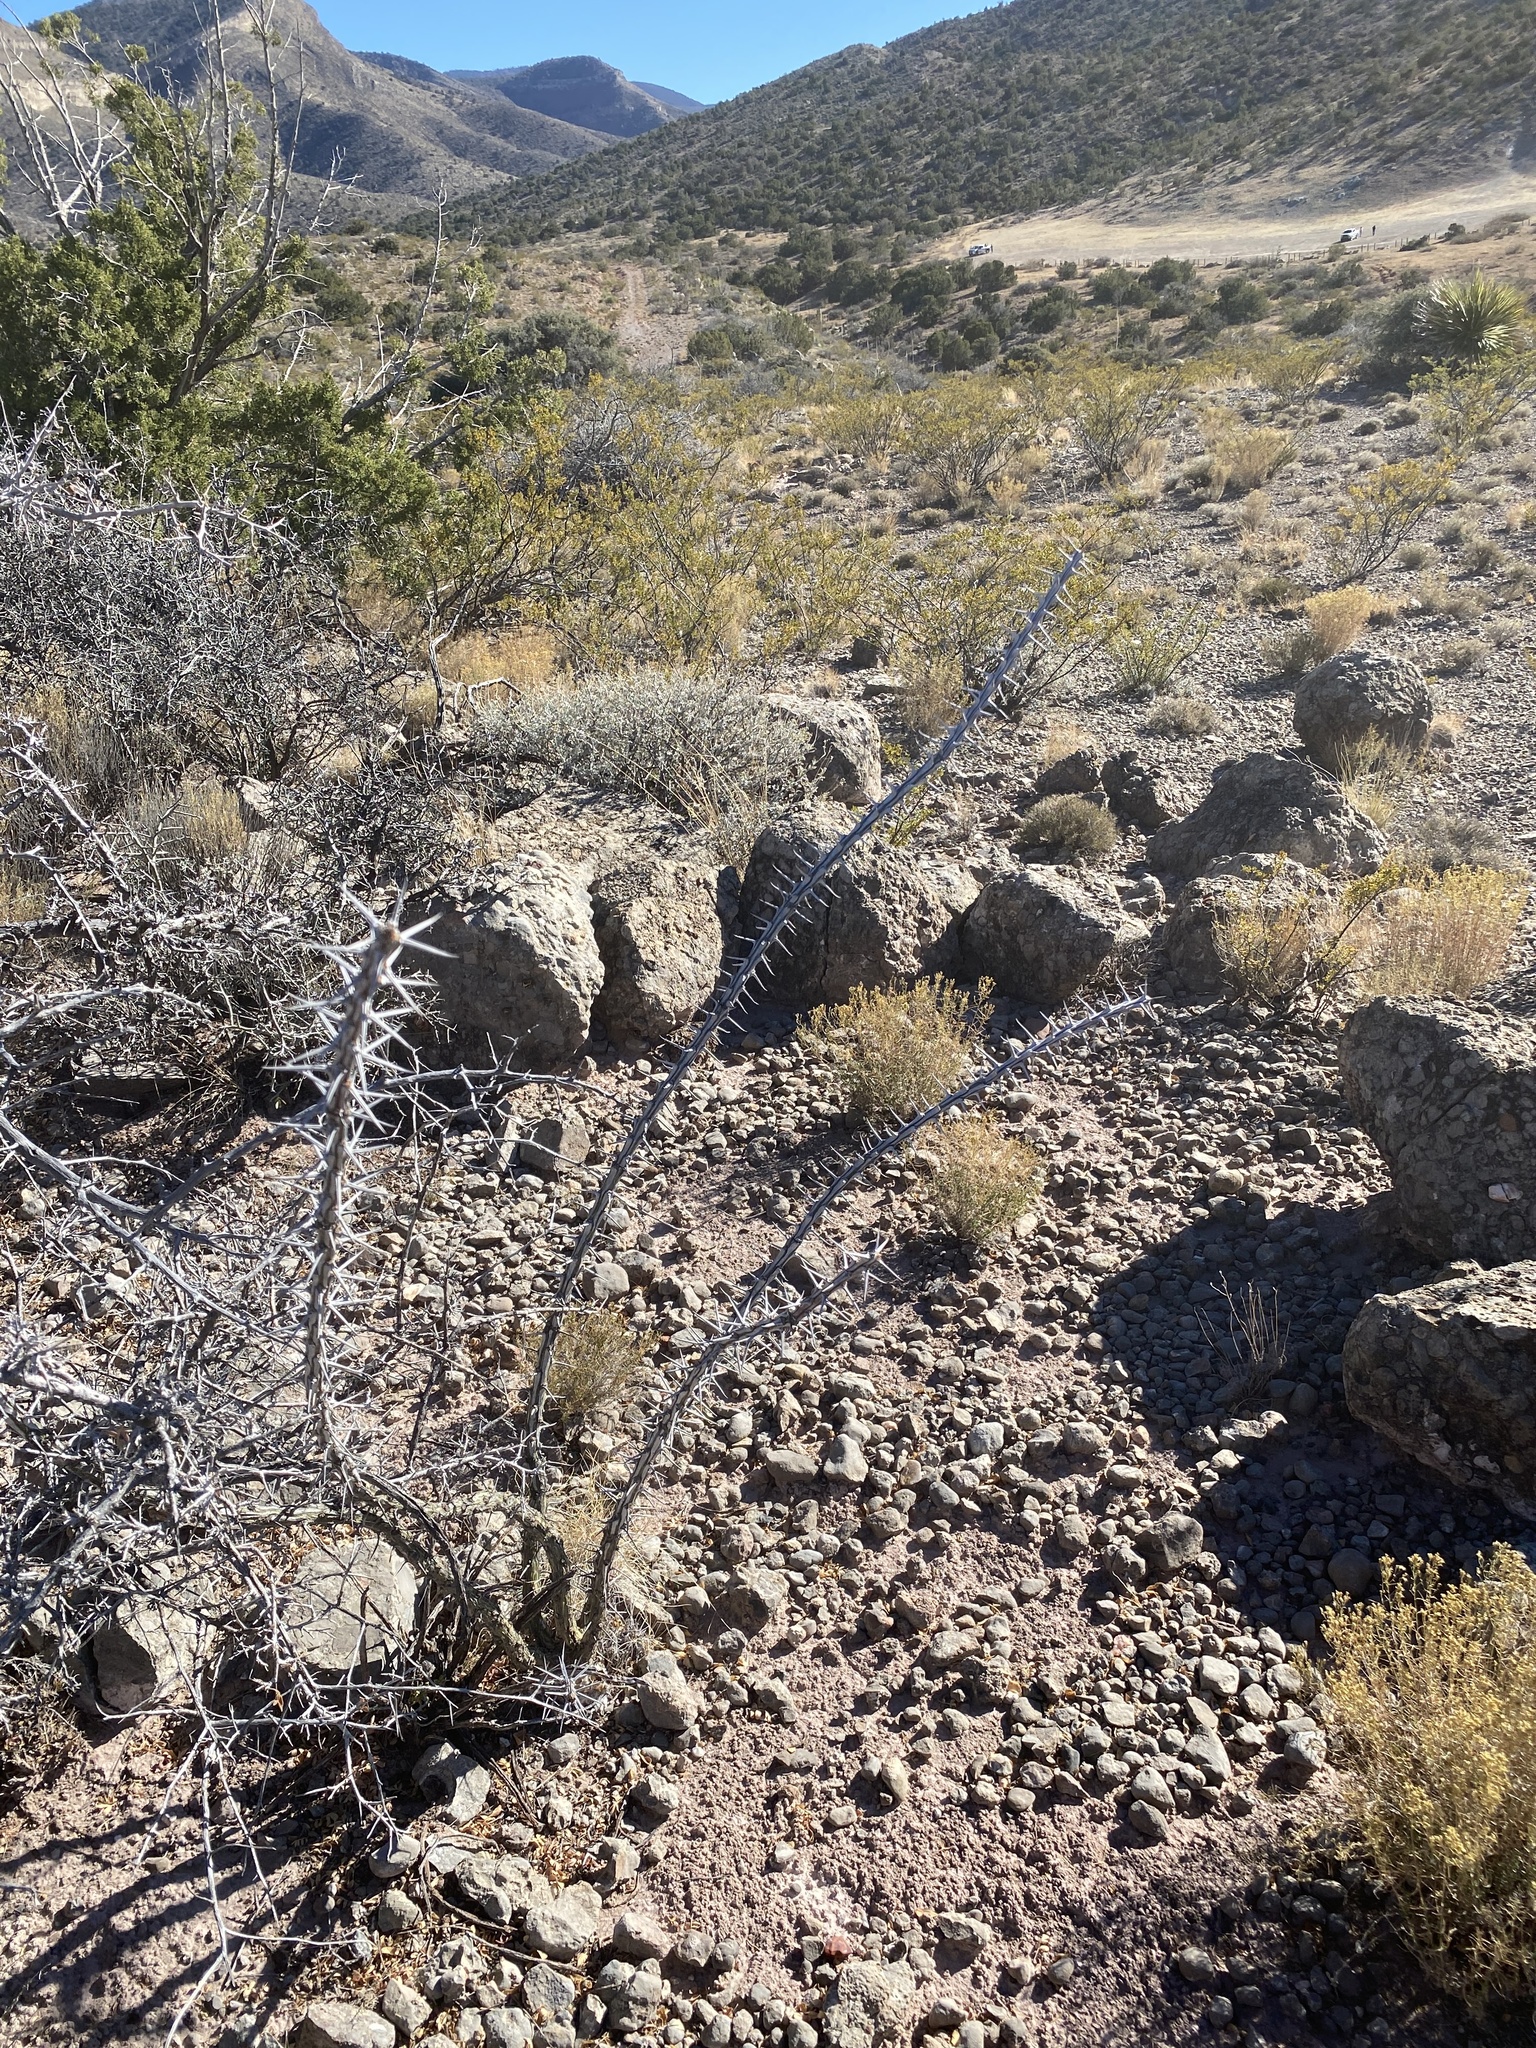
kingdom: Plantae
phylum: Tracheophyta
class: Magnoliopsida
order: Ericales
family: Fouquieriaceae
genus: Fouquieria
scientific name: Fouquieria splendens
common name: Vine-cactus
